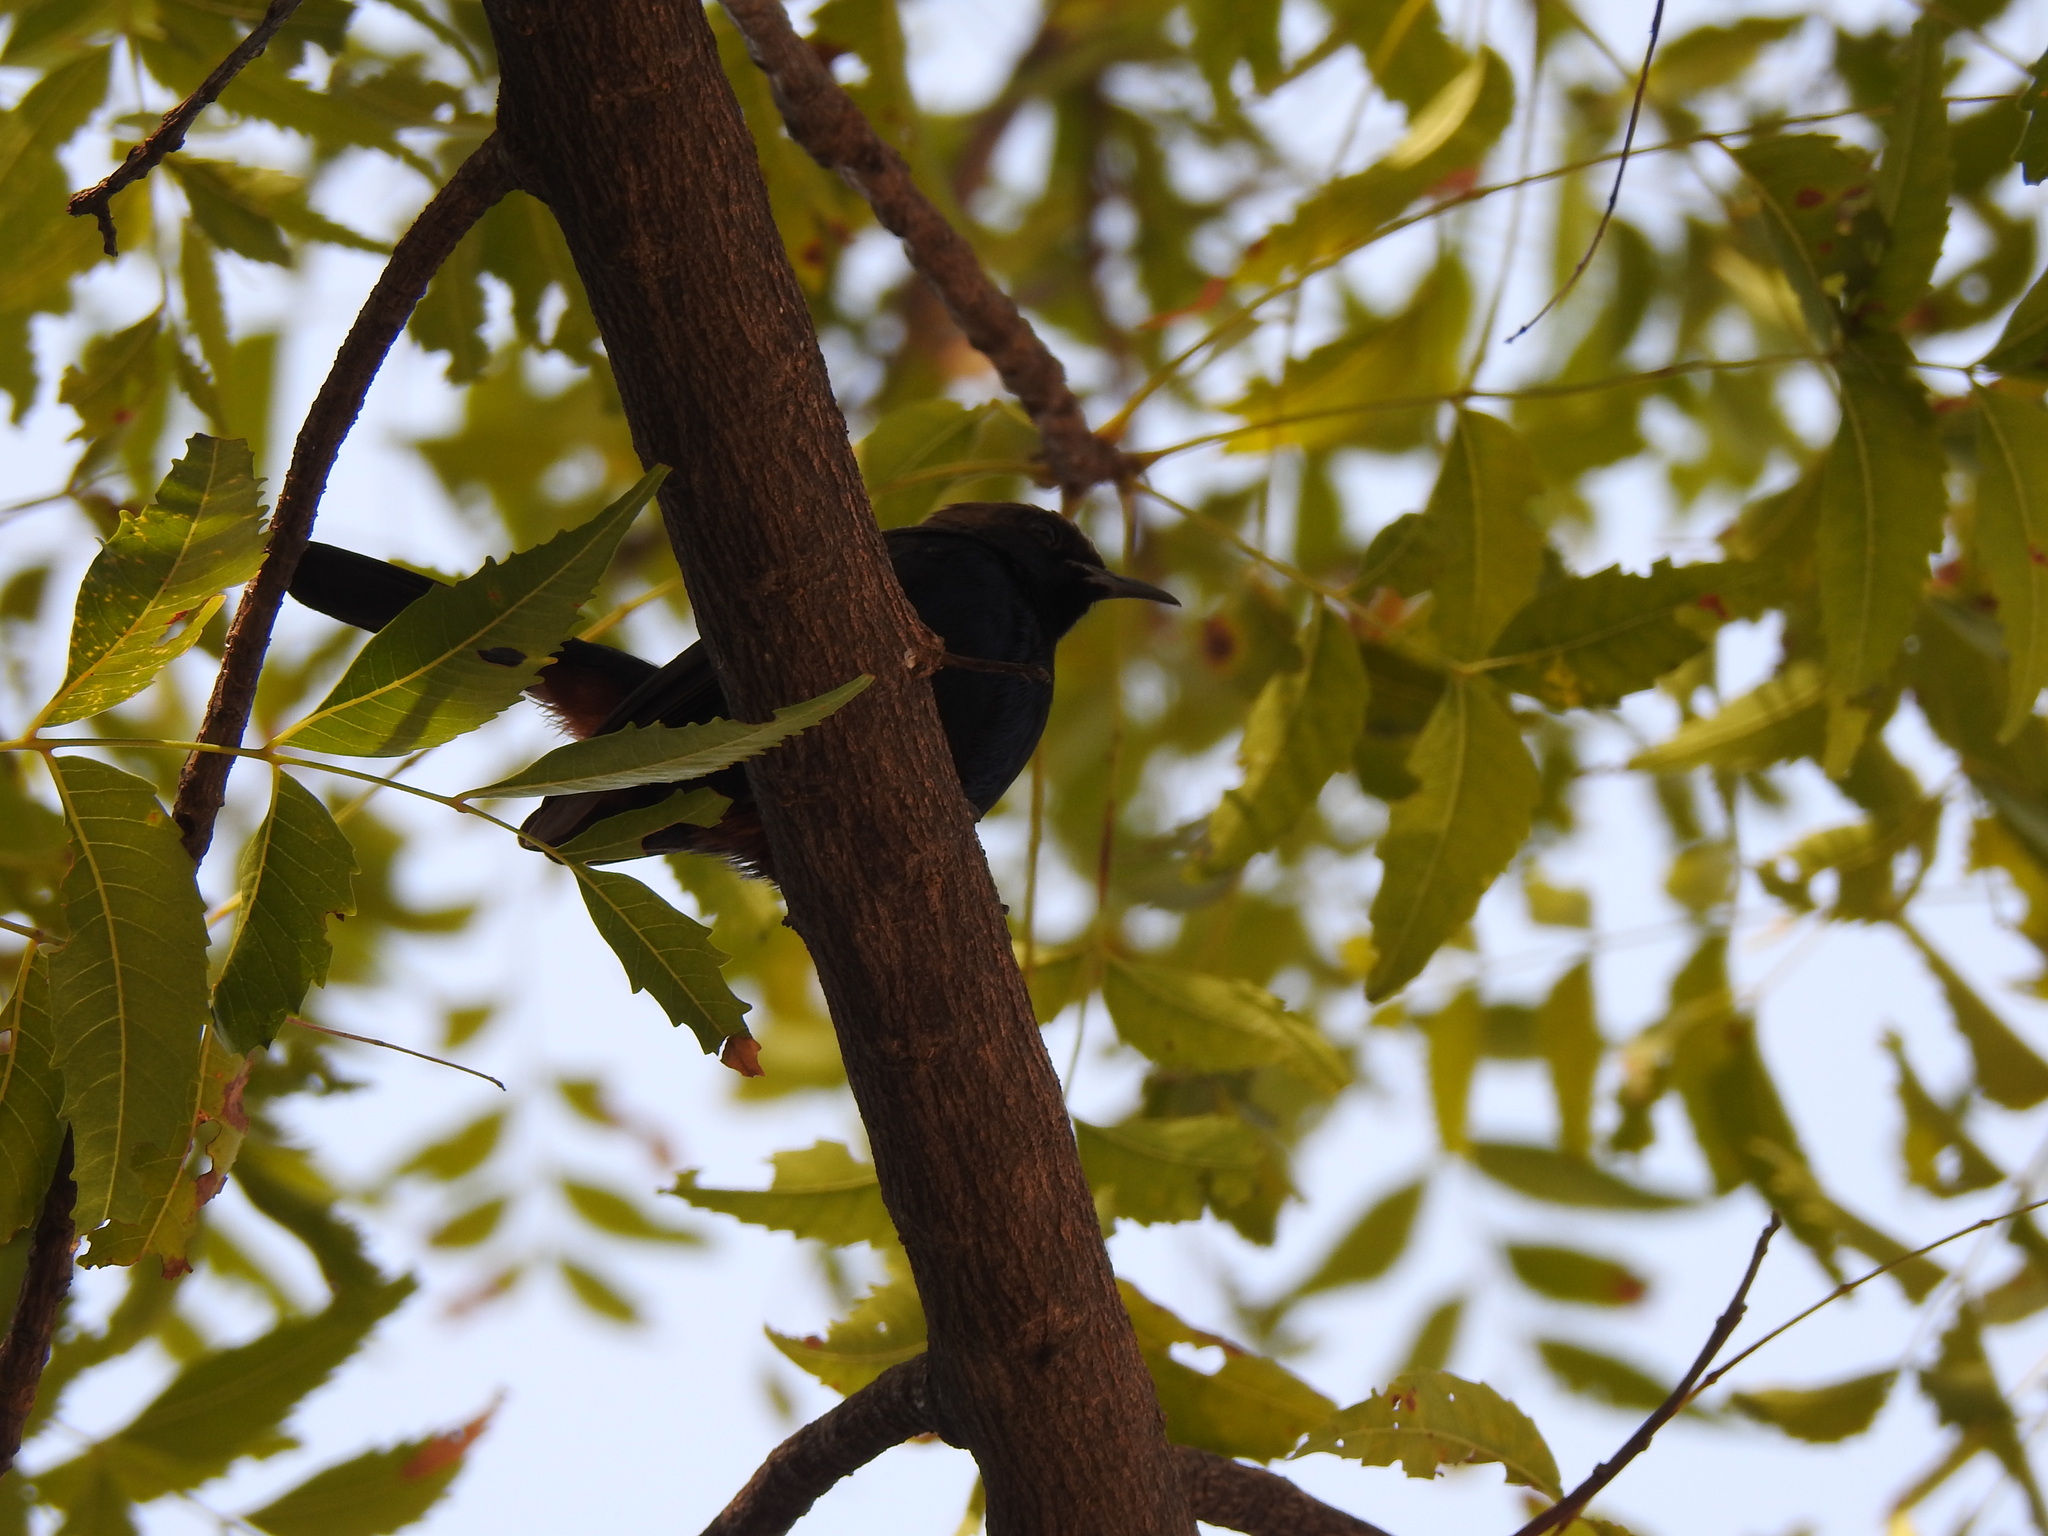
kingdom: Animalia
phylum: Chordata
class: Aves
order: Passeriformes
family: Muscicapidae
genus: Saxicoloides
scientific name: Saxicoloides fulicatus
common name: Indian robin
